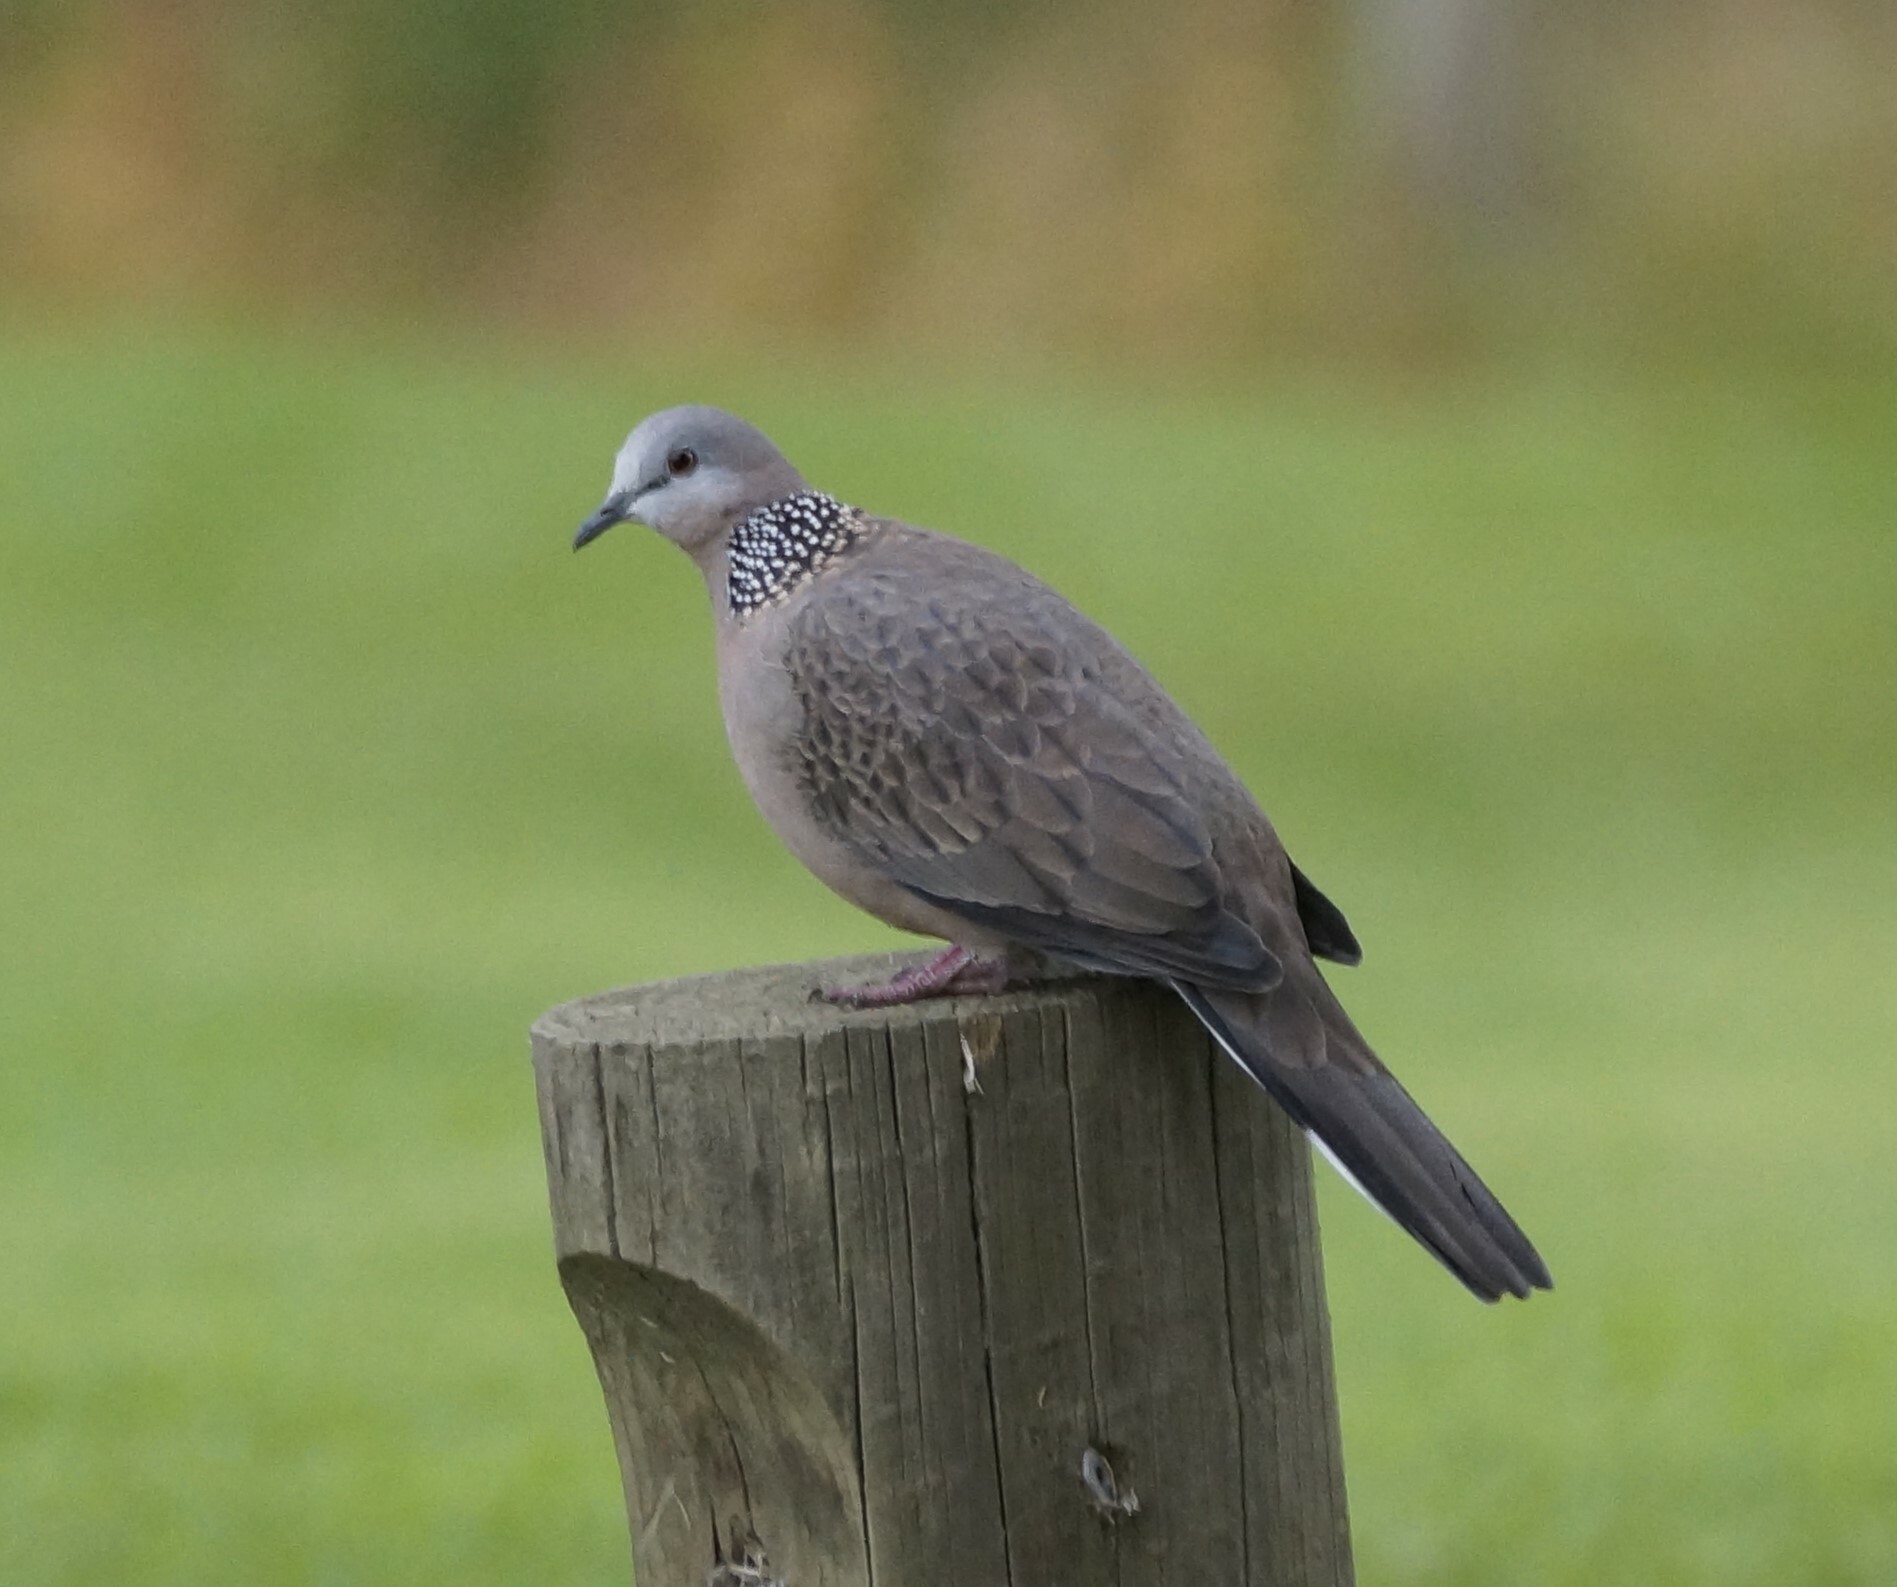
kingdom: Animalia
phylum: Chordata
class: Aves
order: Columbiformes
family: Columbidae
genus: Spilopelia
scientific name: Spilopelia chinensis
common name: Spotted dove
